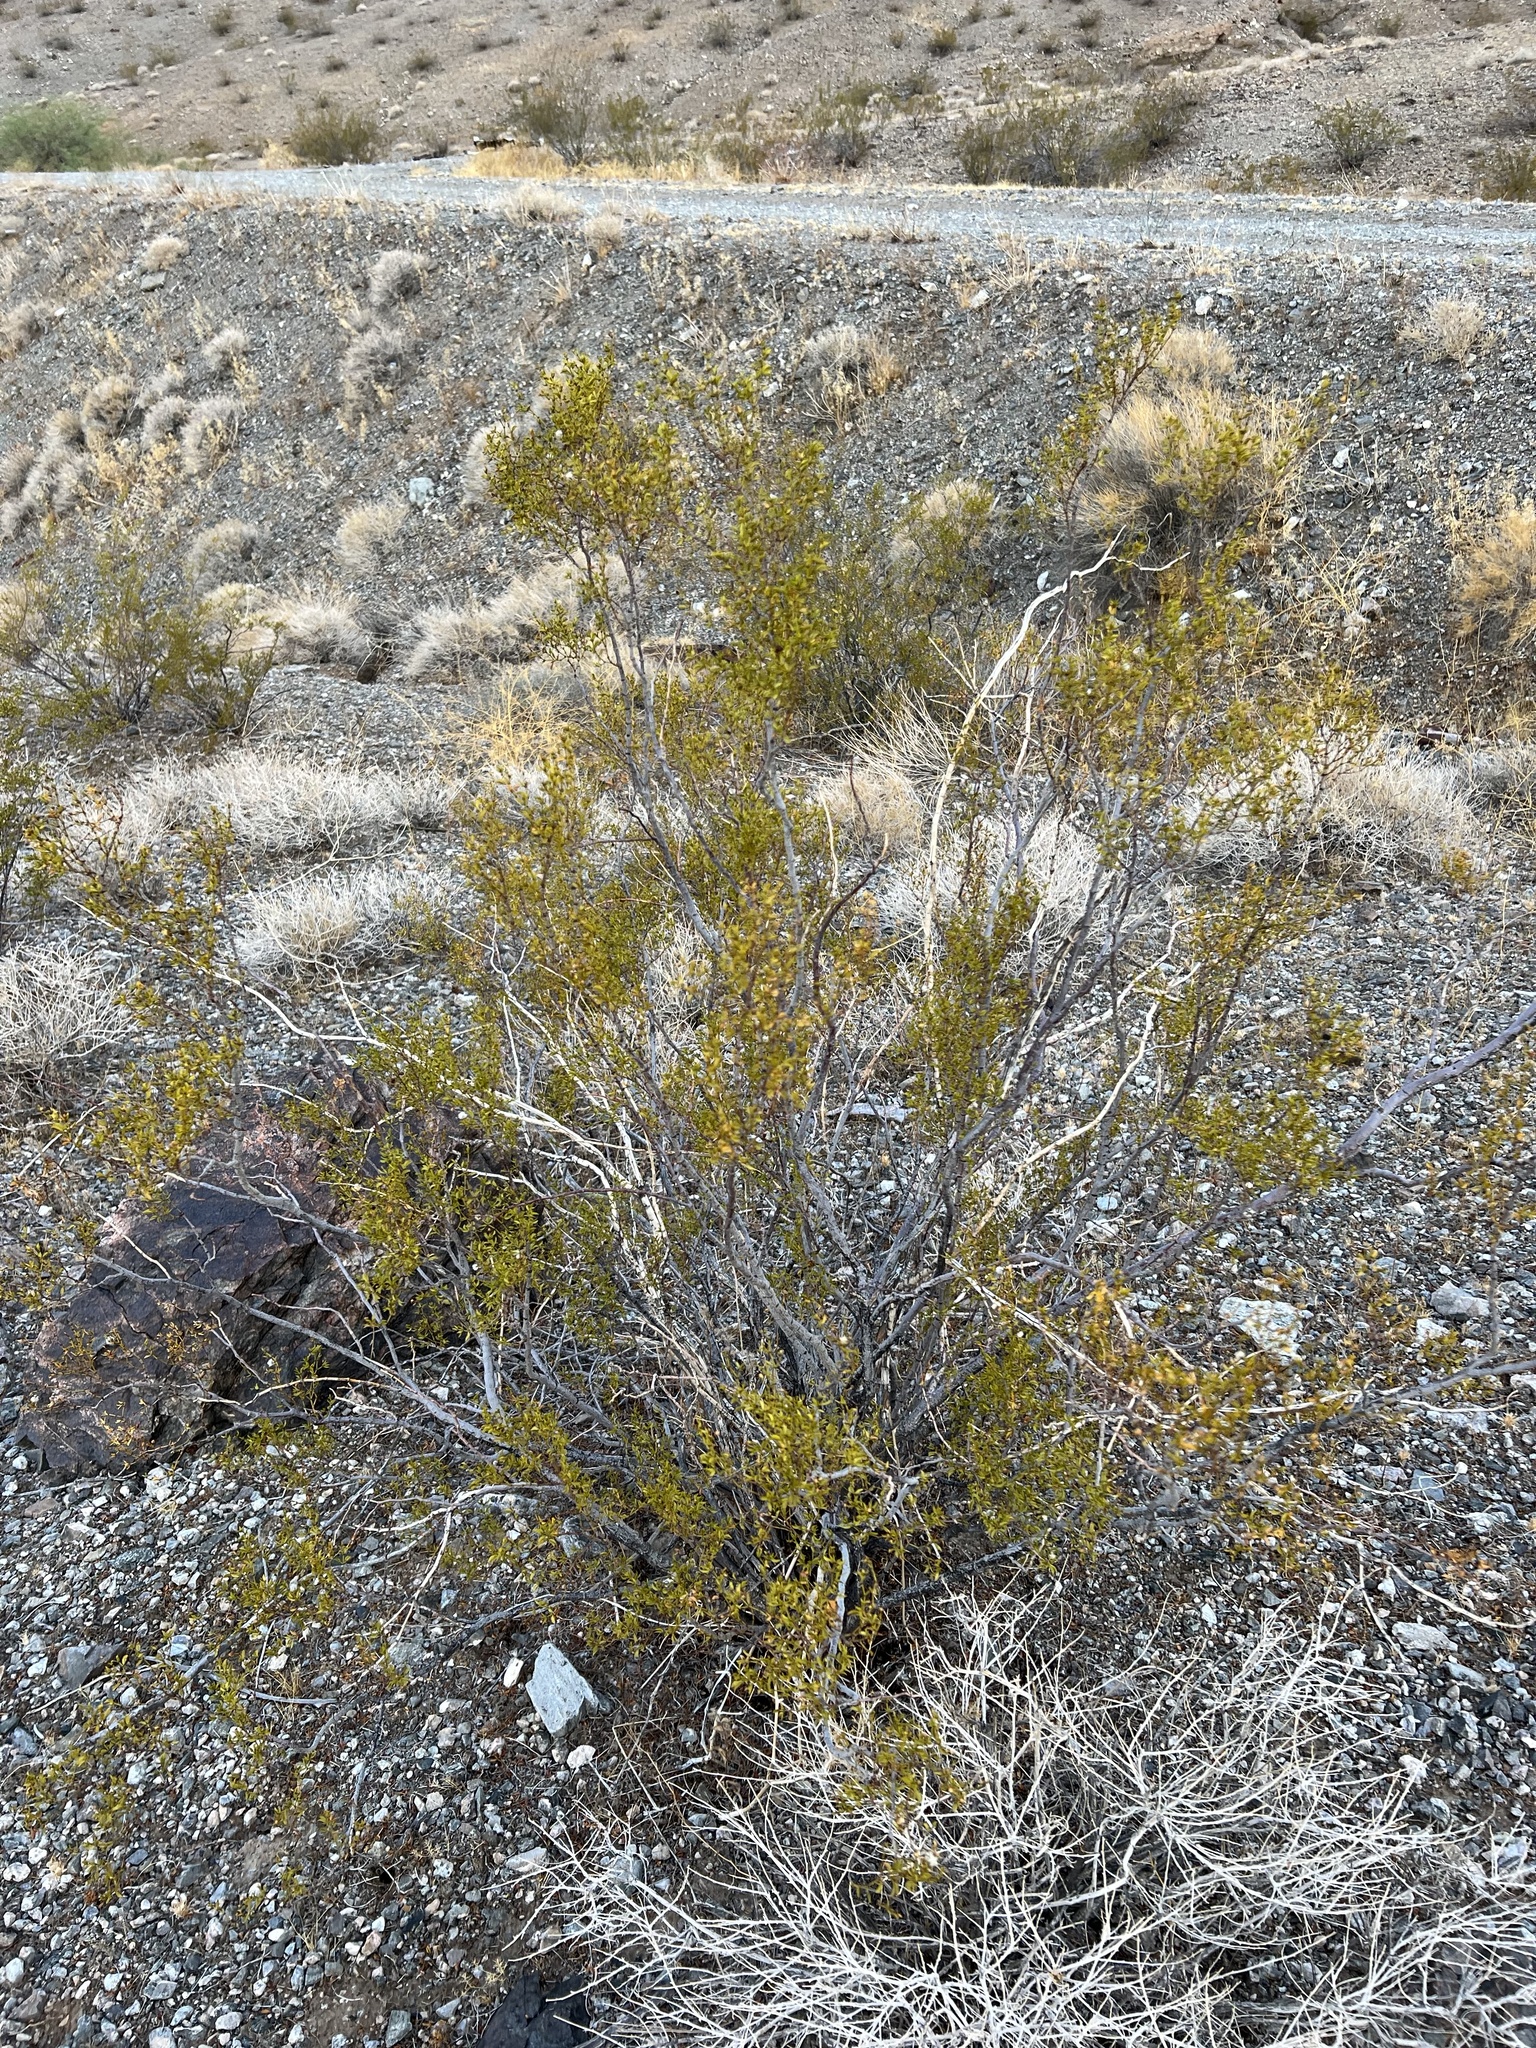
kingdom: Plantae
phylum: Tracheophyta
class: Magnoliopsida
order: Zygophyllales
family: Zygophyllaceae
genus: Larrea
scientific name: Larrea tridentata
